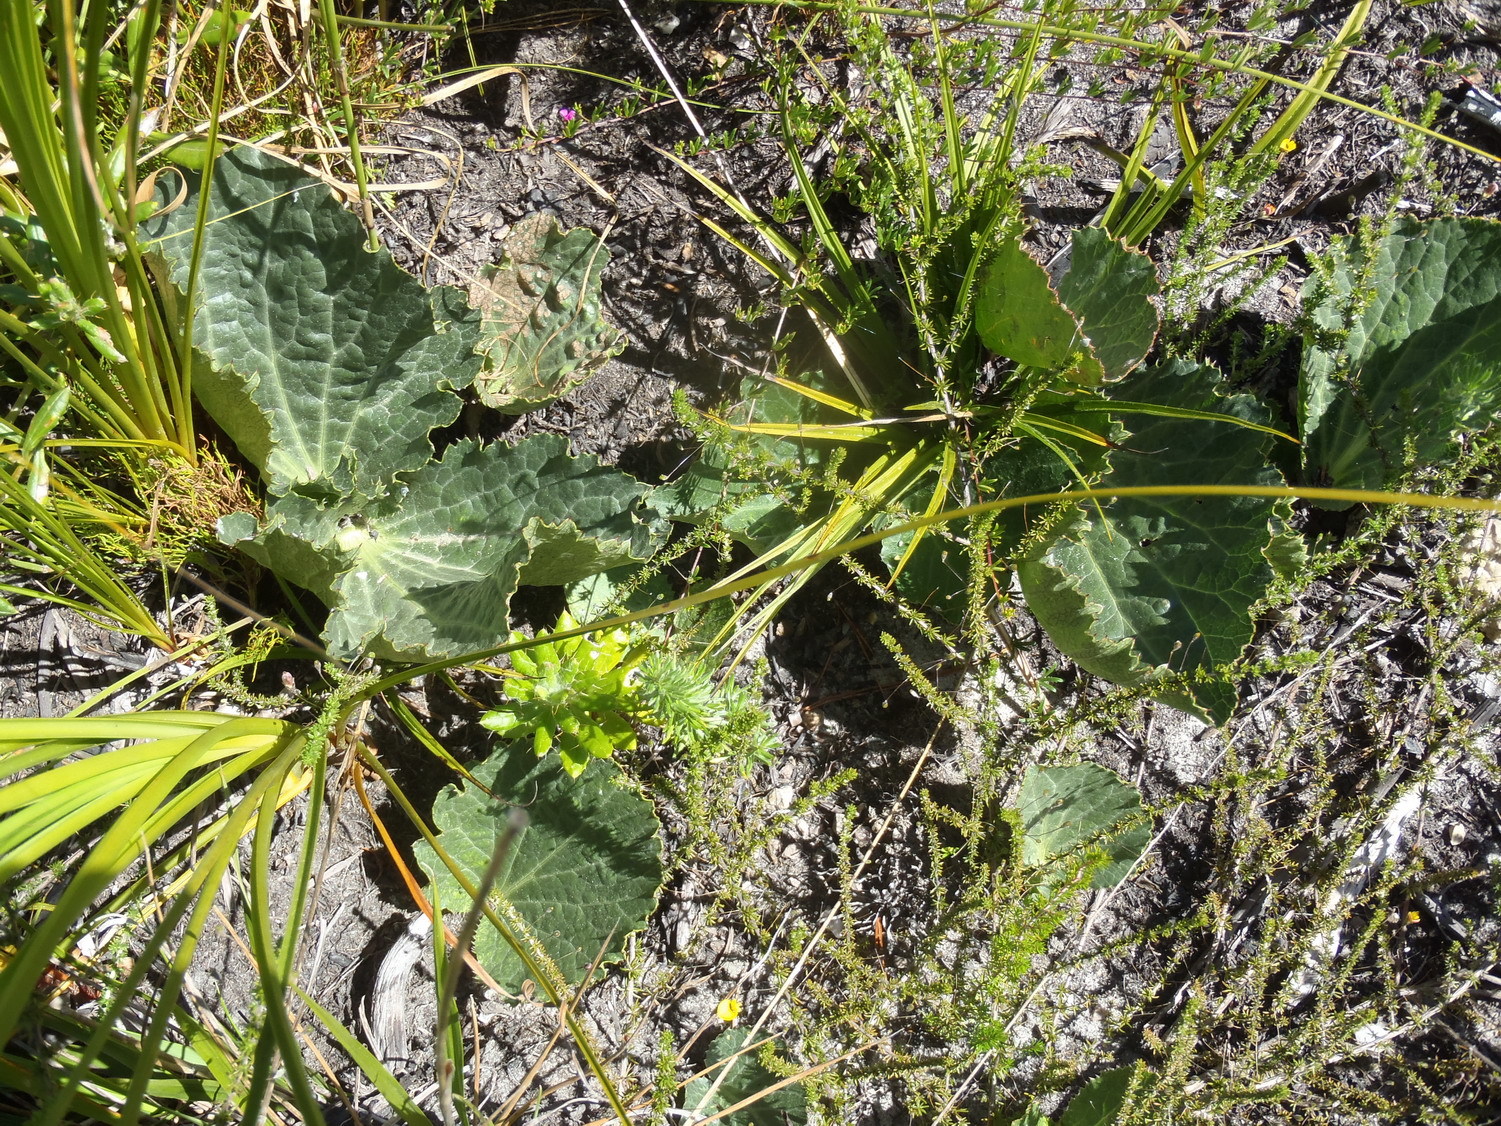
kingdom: Plantae
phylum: Tracheophyta
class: Magnoliopsida
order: Apiales
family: Apiaceae
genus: Lichtensteinia
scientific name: Lichtensteinia latifolia
